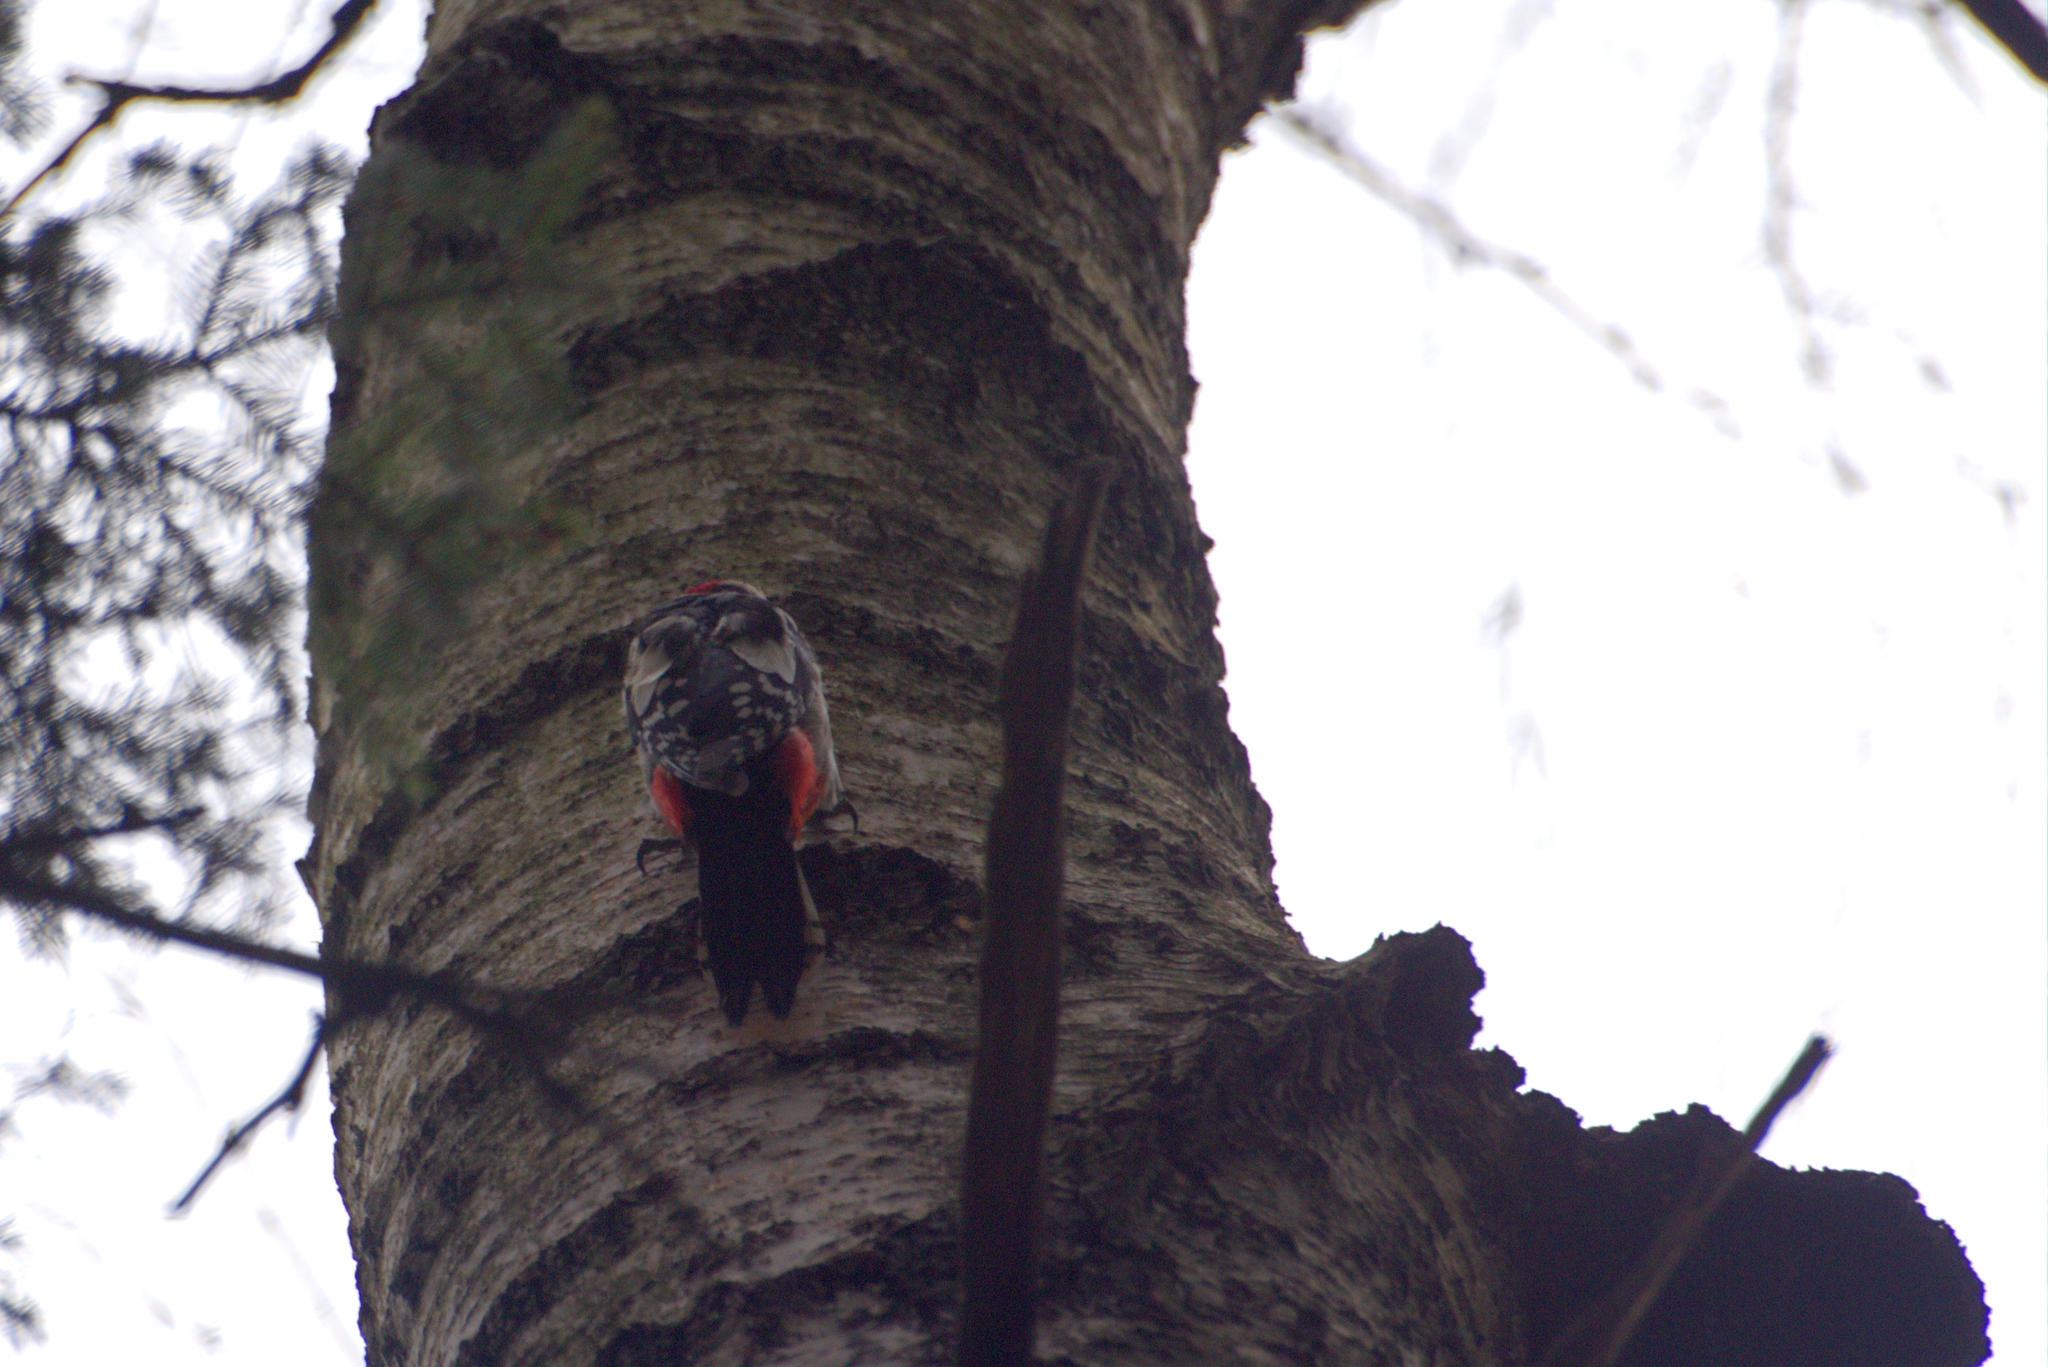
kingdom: Animalia
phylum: Chordata
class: Aves
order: Piciformes
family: Picidae
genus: Dendrocopos
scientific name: Dendrocopos major
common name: Great spotted woodpecker
